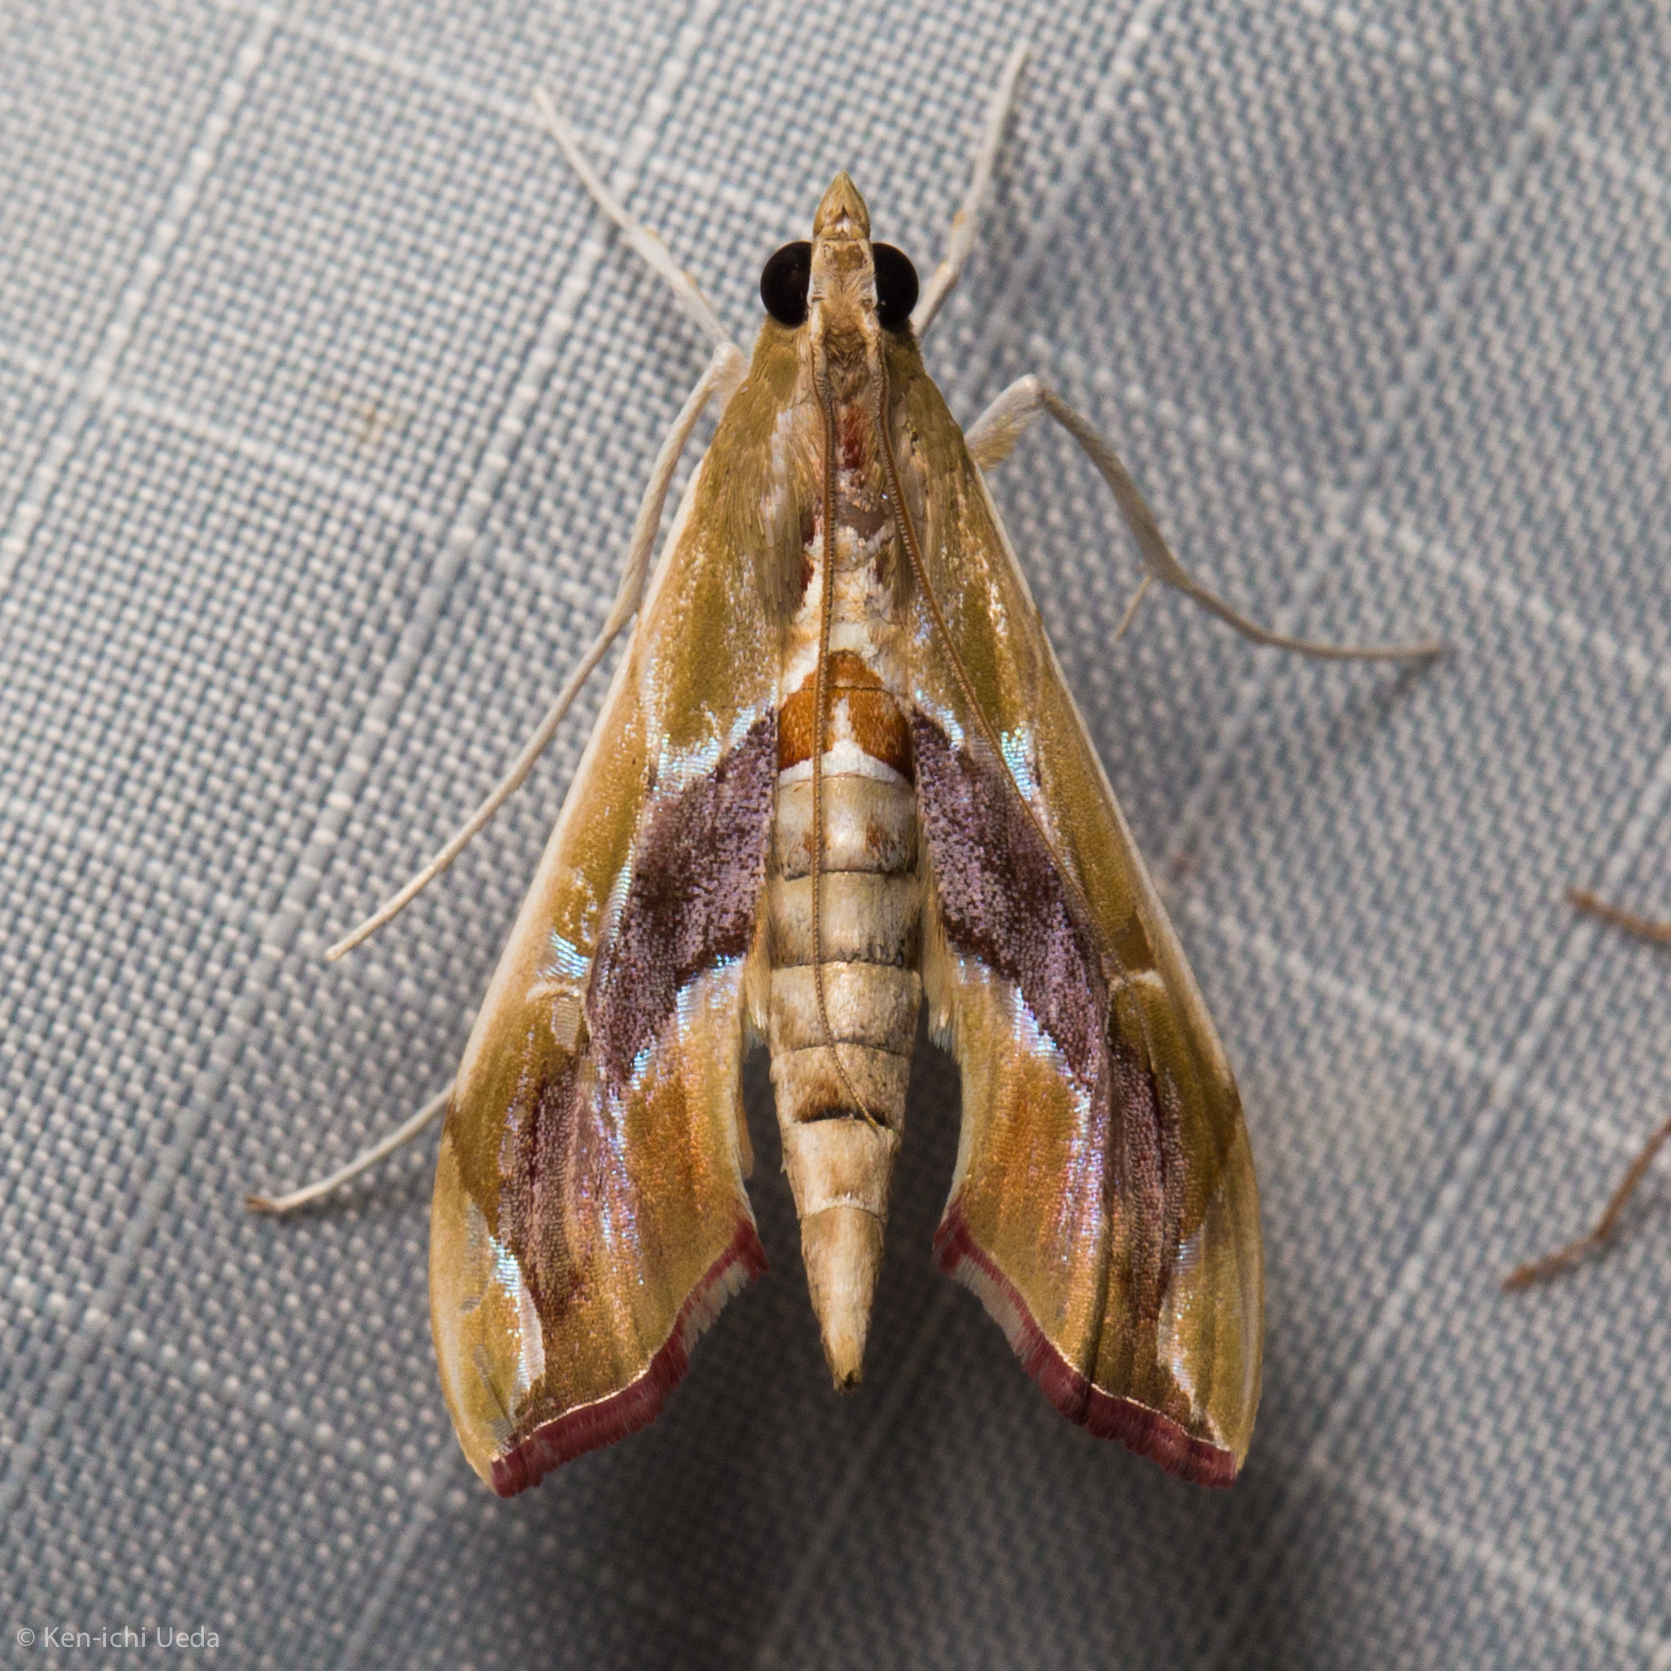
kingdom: Animalia
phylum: Arthropoda
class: Insecta
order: Lepidoptera
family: Crambidae
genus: Agathodes
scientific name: Agathodes monstralis
